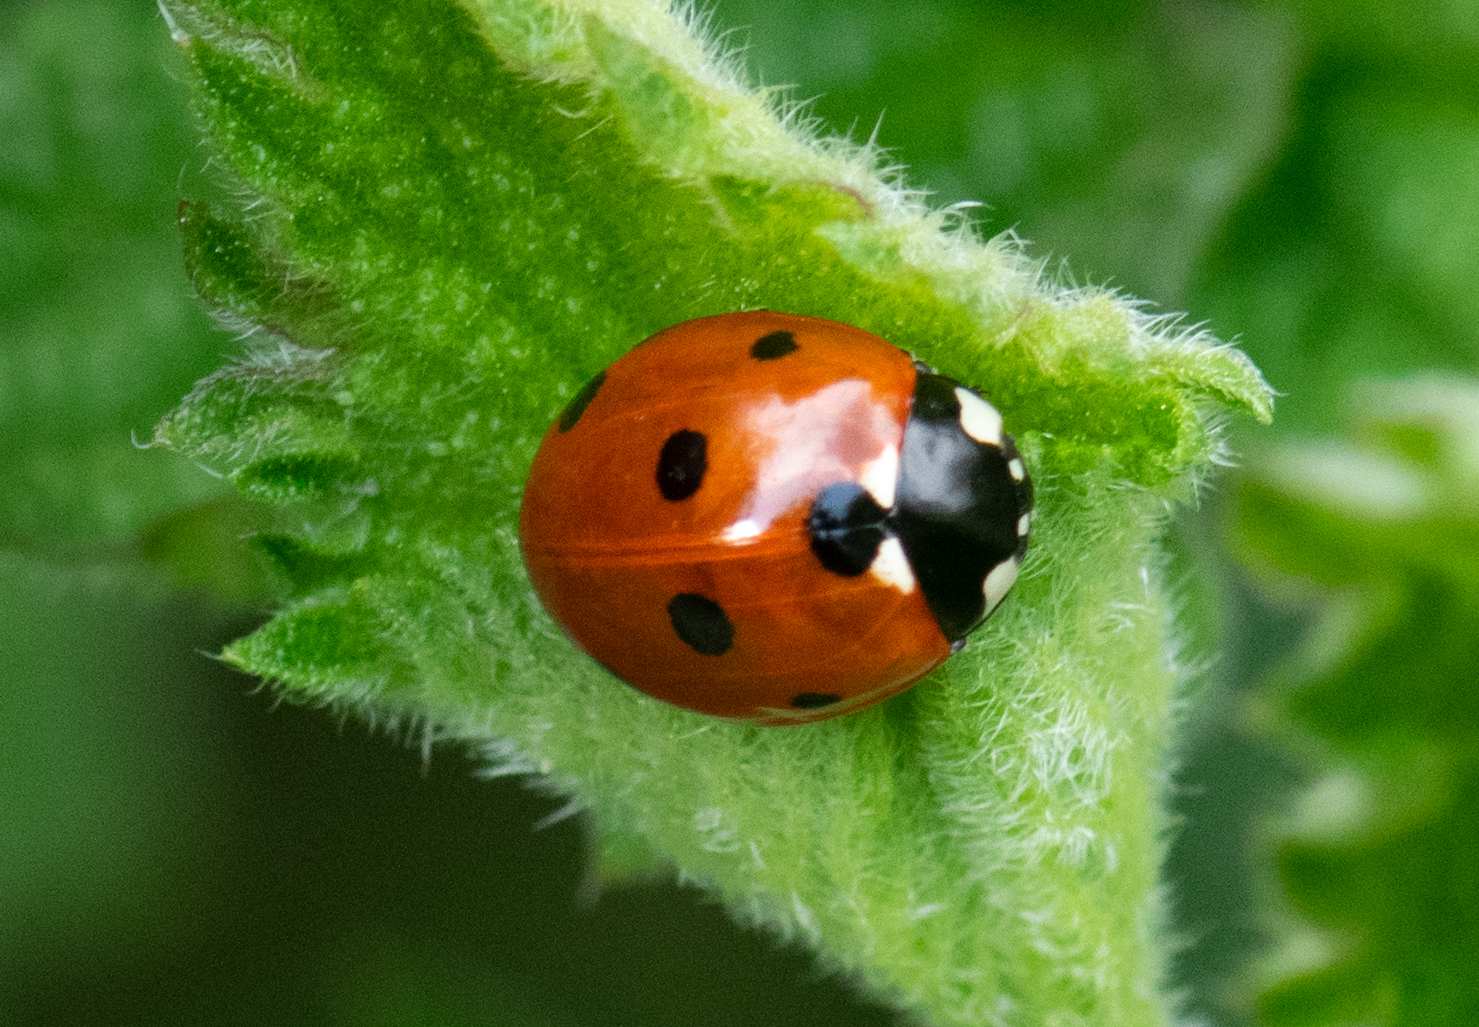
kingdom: Animalia
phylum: Arthropoda
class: Insecta
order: Coleoptera
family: Coccinellidae
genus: Coccinella
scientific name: Coccinella septempunctata
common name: Sevenspotted lady beetle
